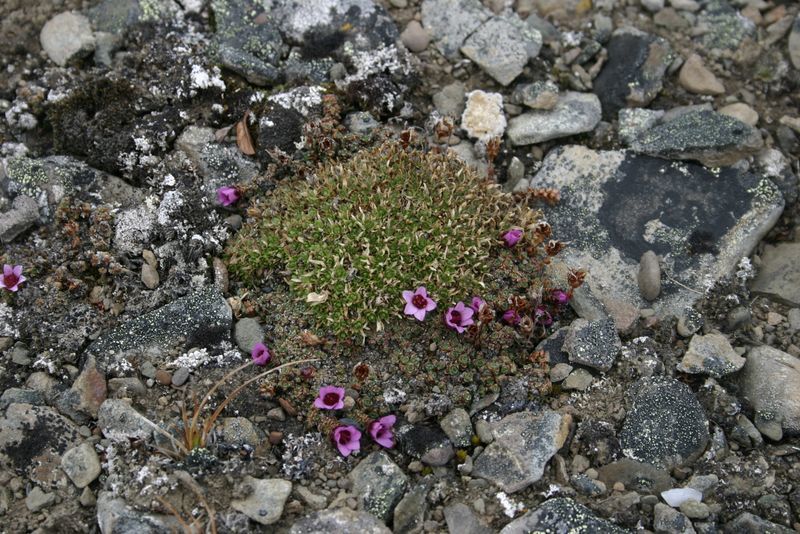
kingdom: Plantae
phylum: Tracheophyta
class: Magnoliopsida
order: Saxifragales
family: Saxifragaceae
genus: Saxifraga
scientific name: Saxifraga oppositifolia
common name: Purple saxifrage
